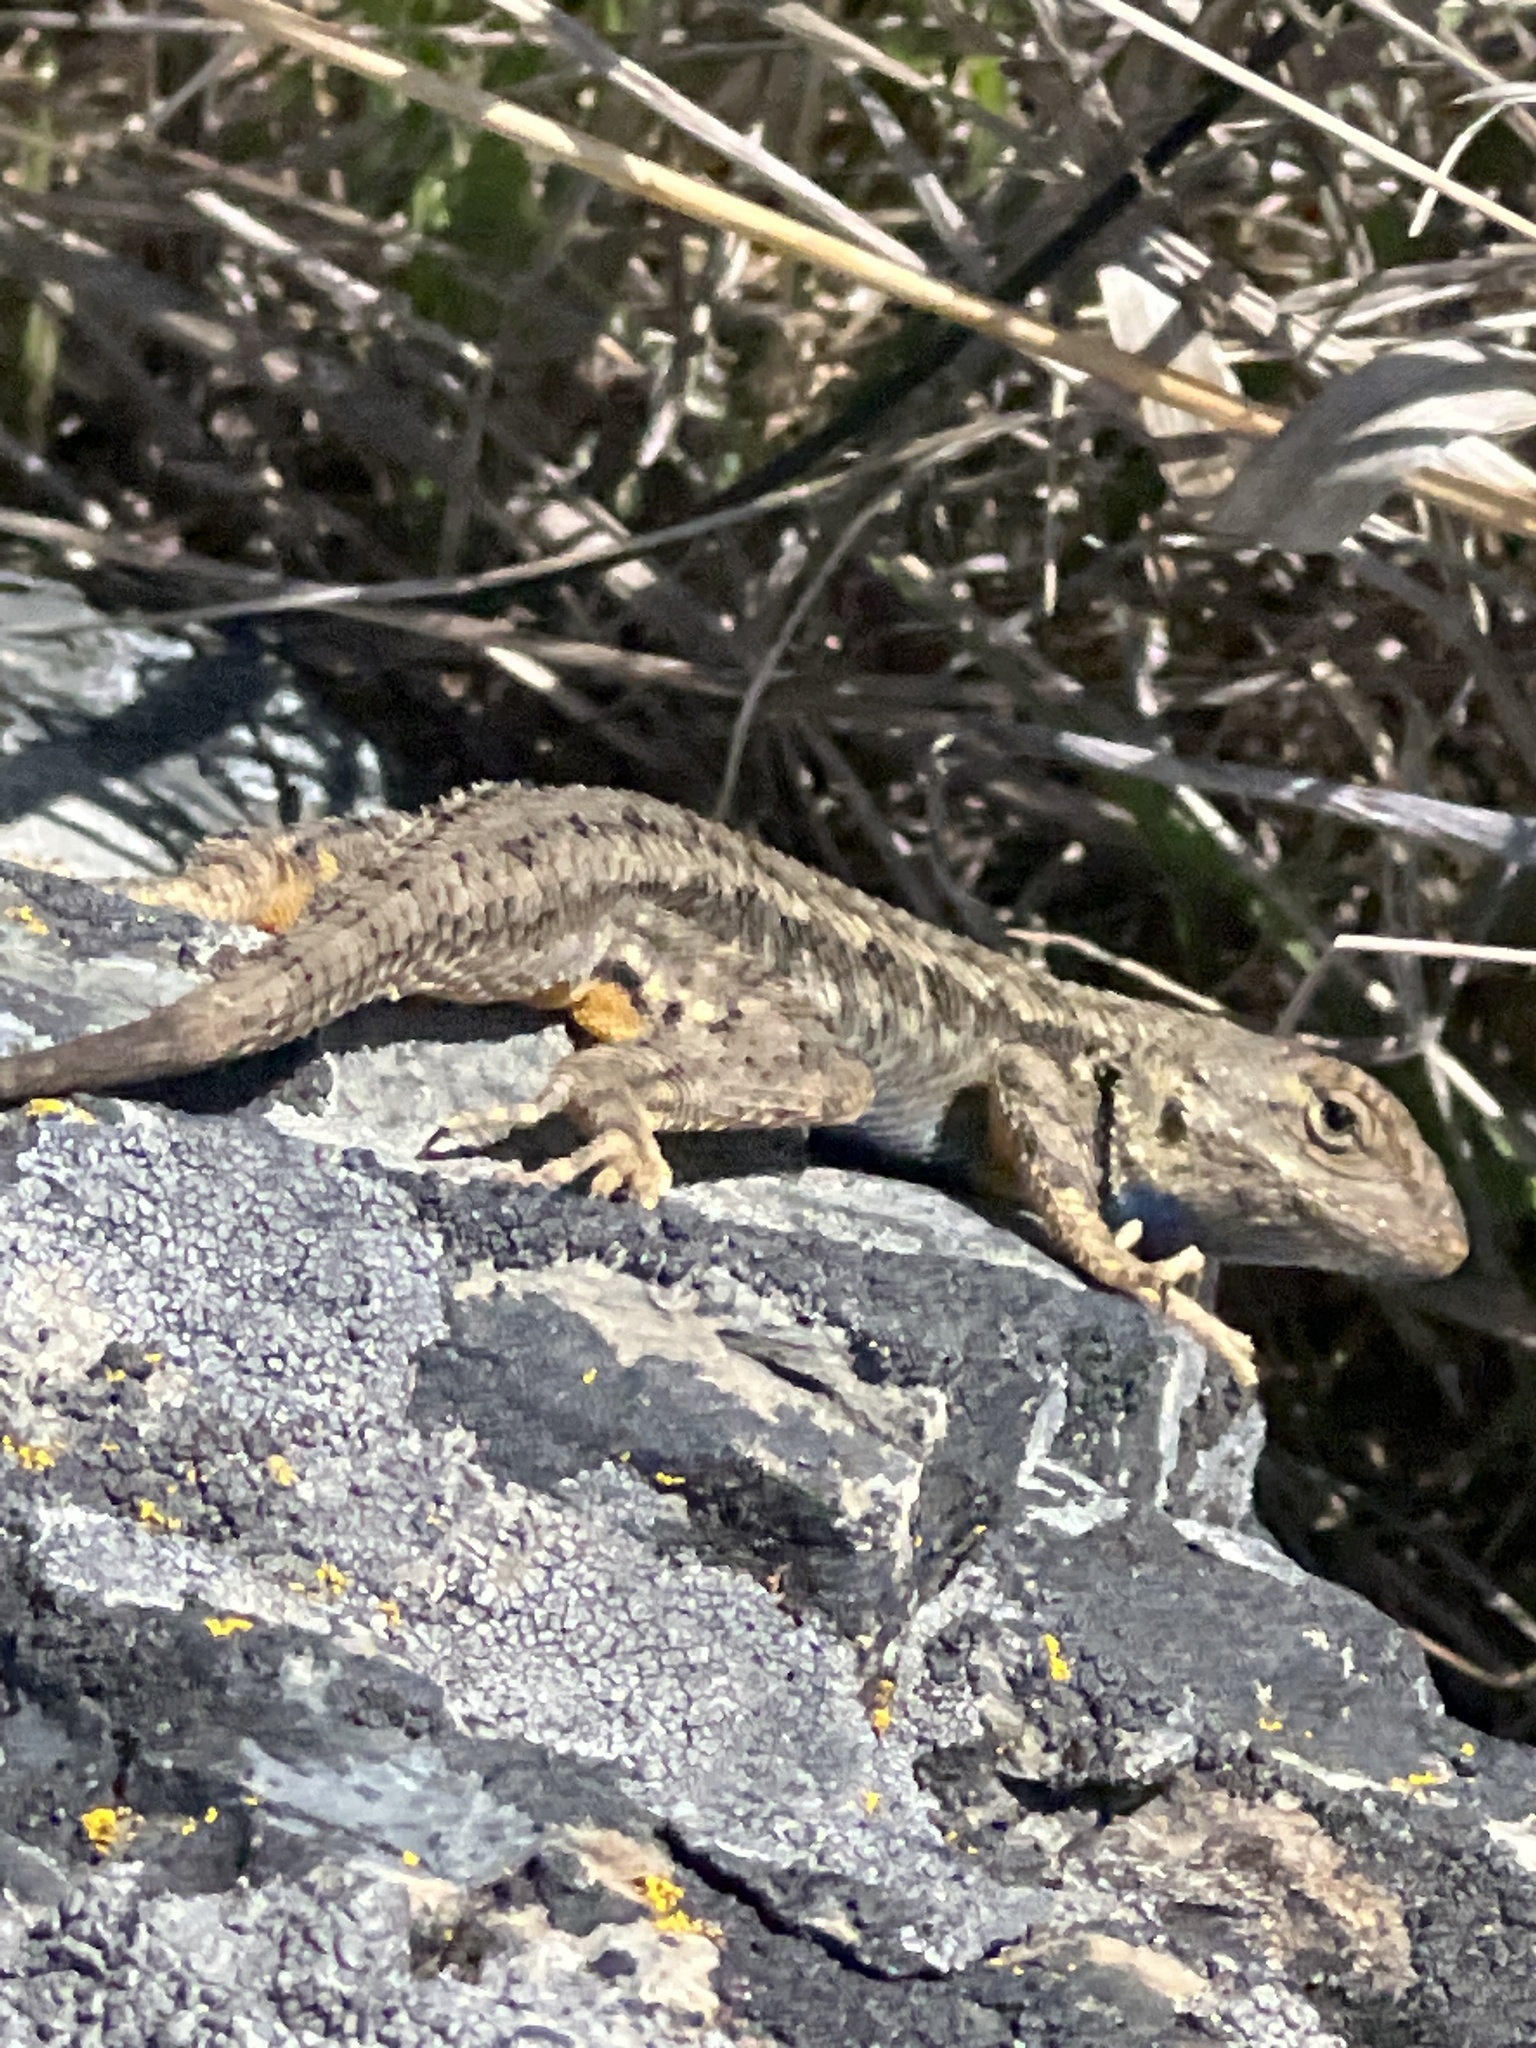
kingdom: Animalia
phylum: Chordata
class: Squamata
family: Phrynosomatidae
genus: Sceloporus
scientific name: Sceloporus occidentalis
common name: Western fence lizard
